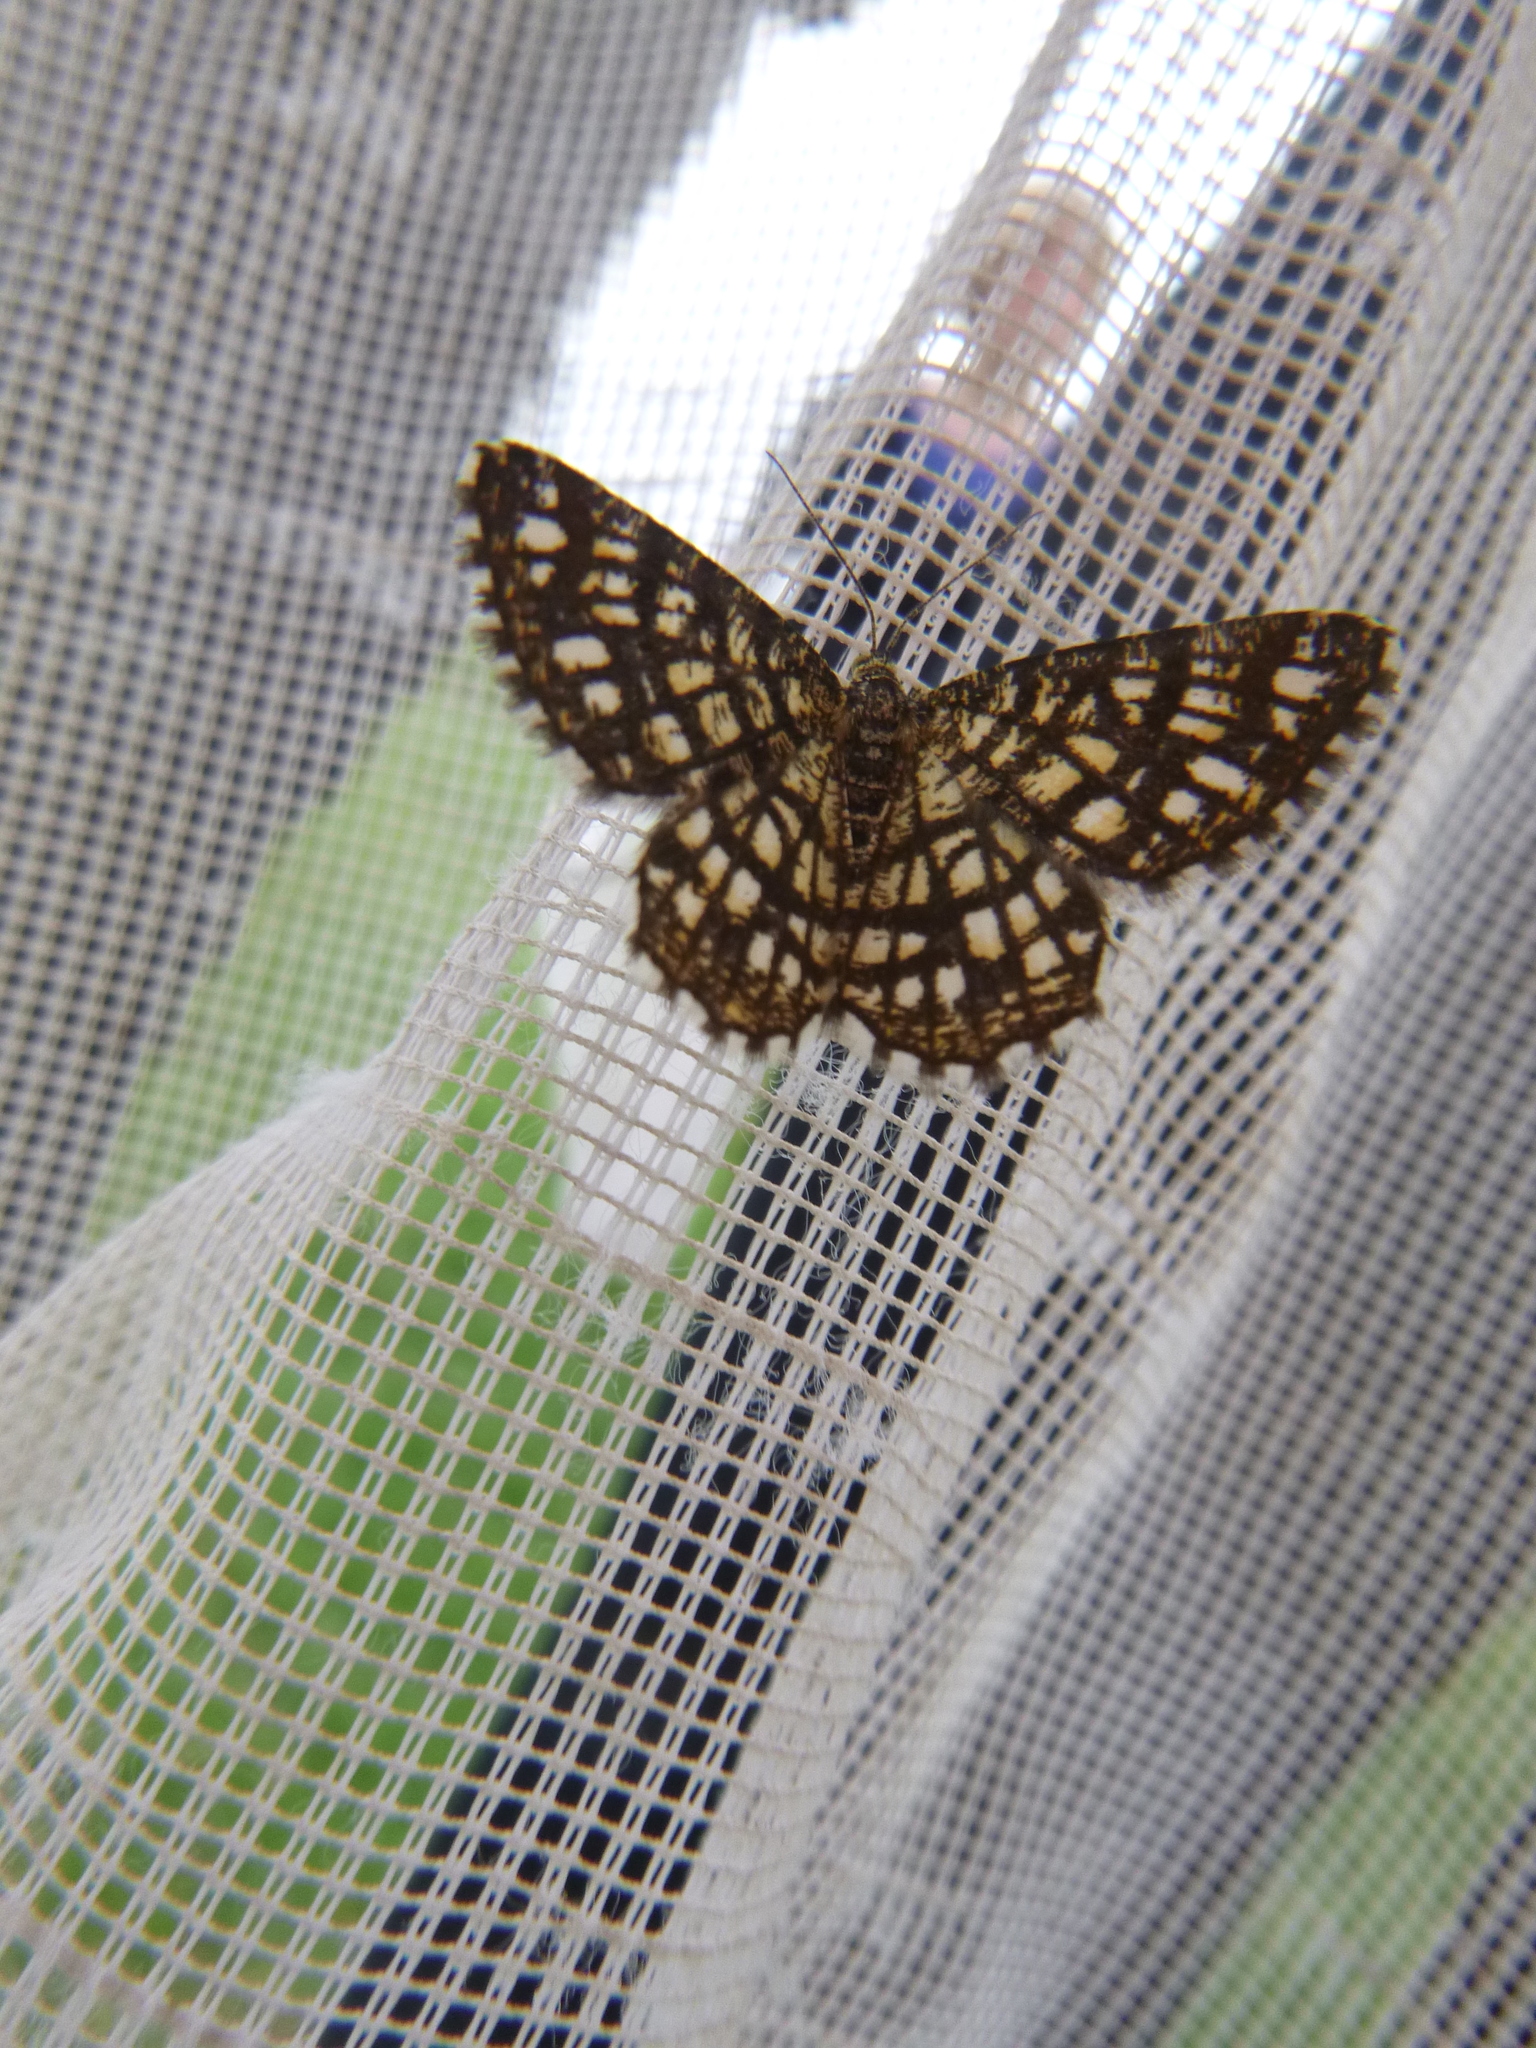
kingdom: Animalia
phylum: Arthropoda
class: Insecta
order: Lepidoptera
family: Geometridae
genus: Chiasmia
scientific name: Chiasmia clathrata
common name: Latticed heath
